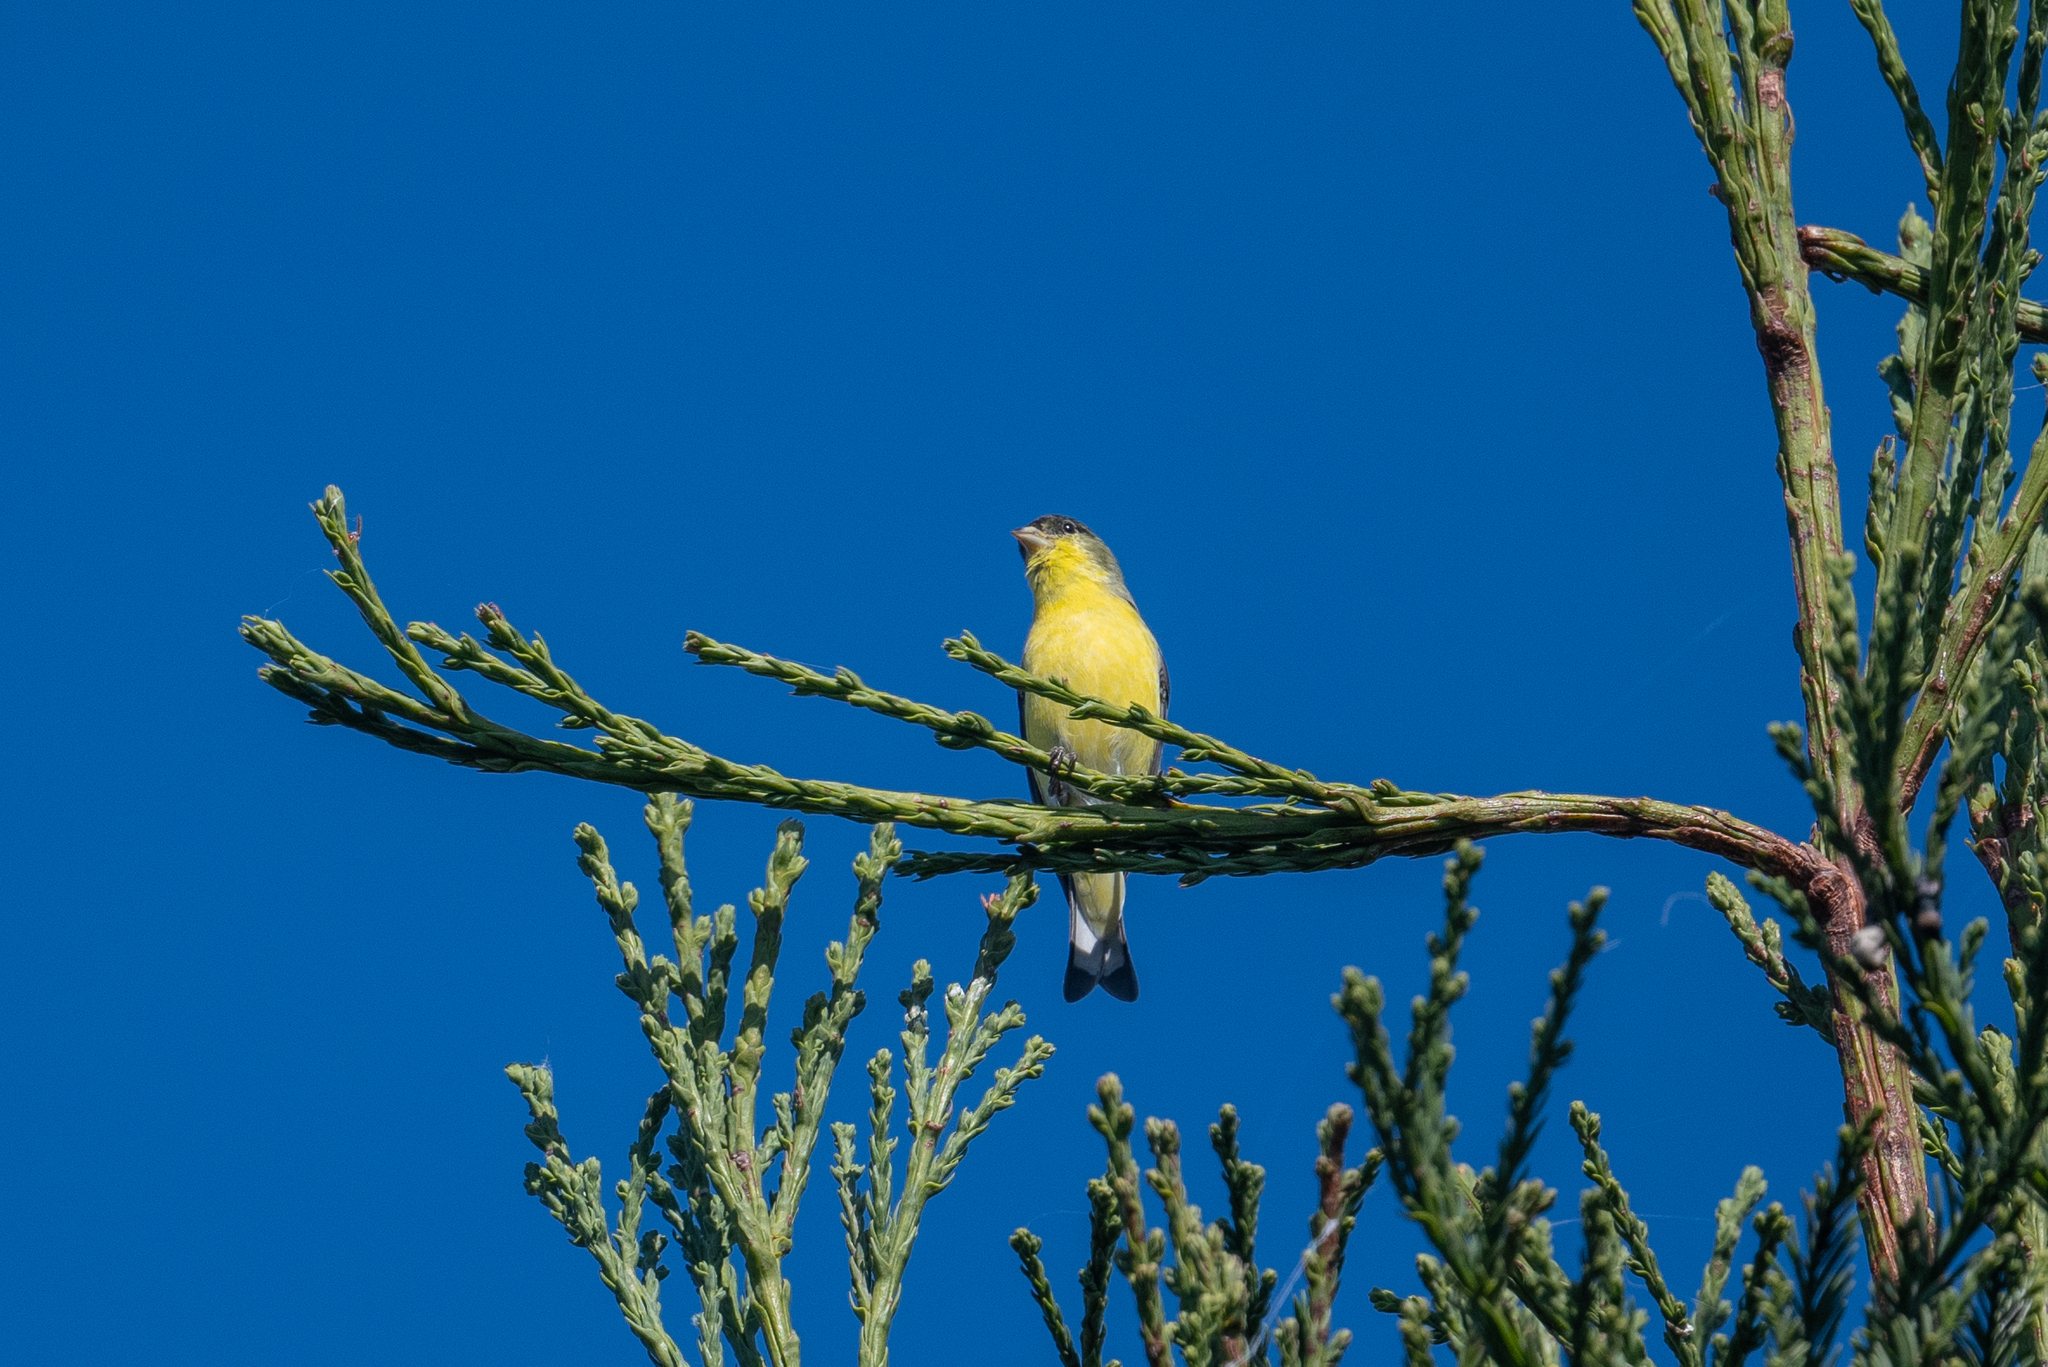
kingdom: Animalia
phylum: Chordata
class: Aves
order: Passeriformes
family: Fringillidae
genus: Spinus
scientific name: Spinus psaltria
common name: Lesser goldfinch
